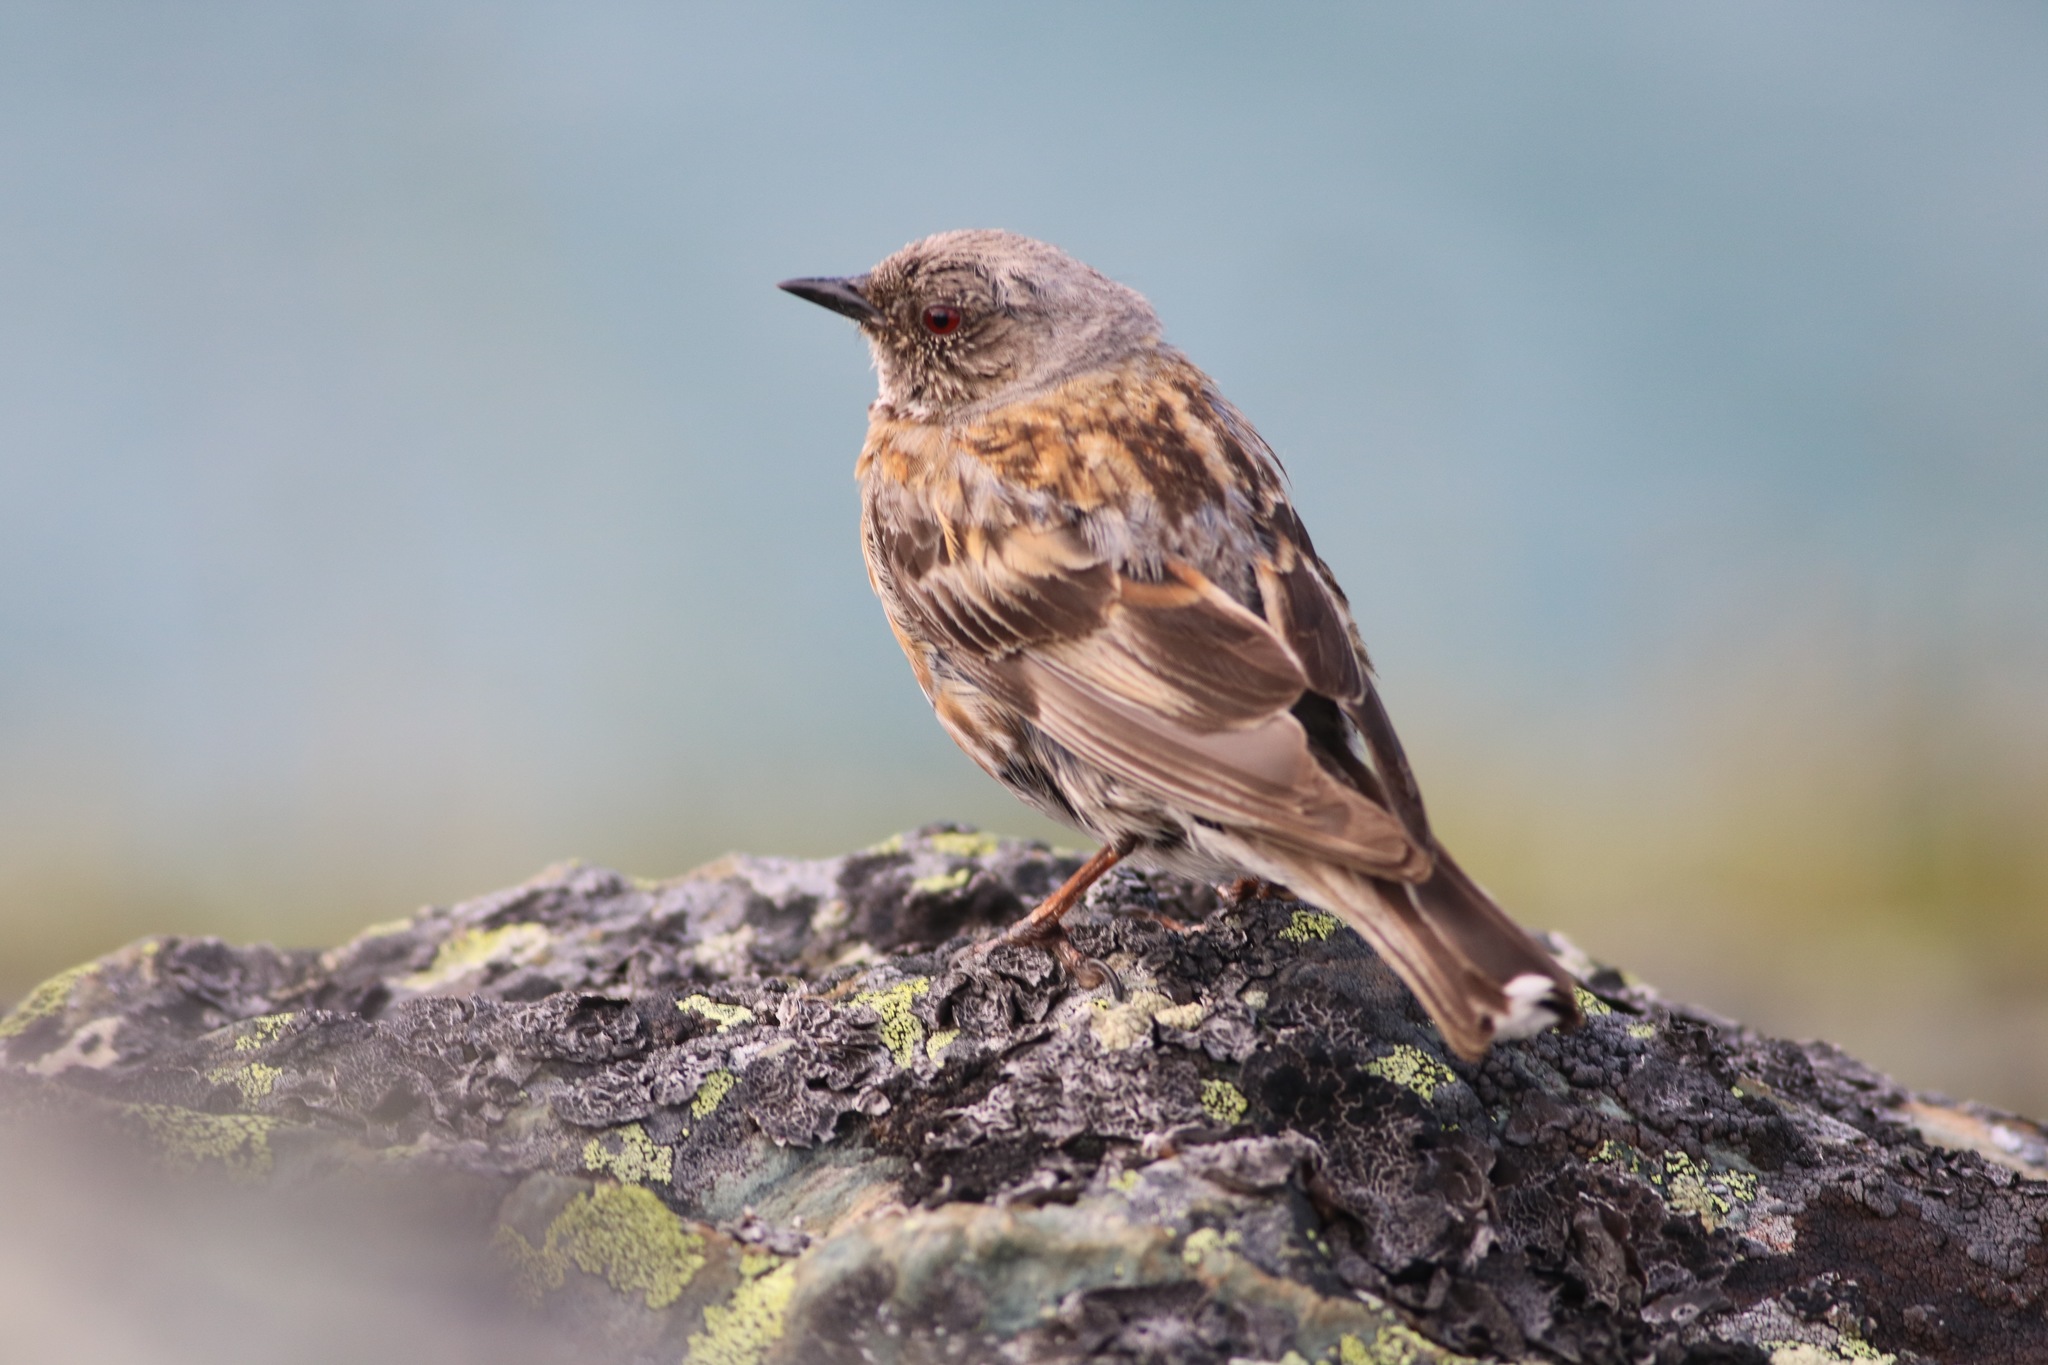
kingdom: Animalia
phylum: Chordata
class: Aves
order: Passeriformes
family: Prunellidae
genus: Prunella
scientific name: Prunella himalayana
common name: Altai accentor
